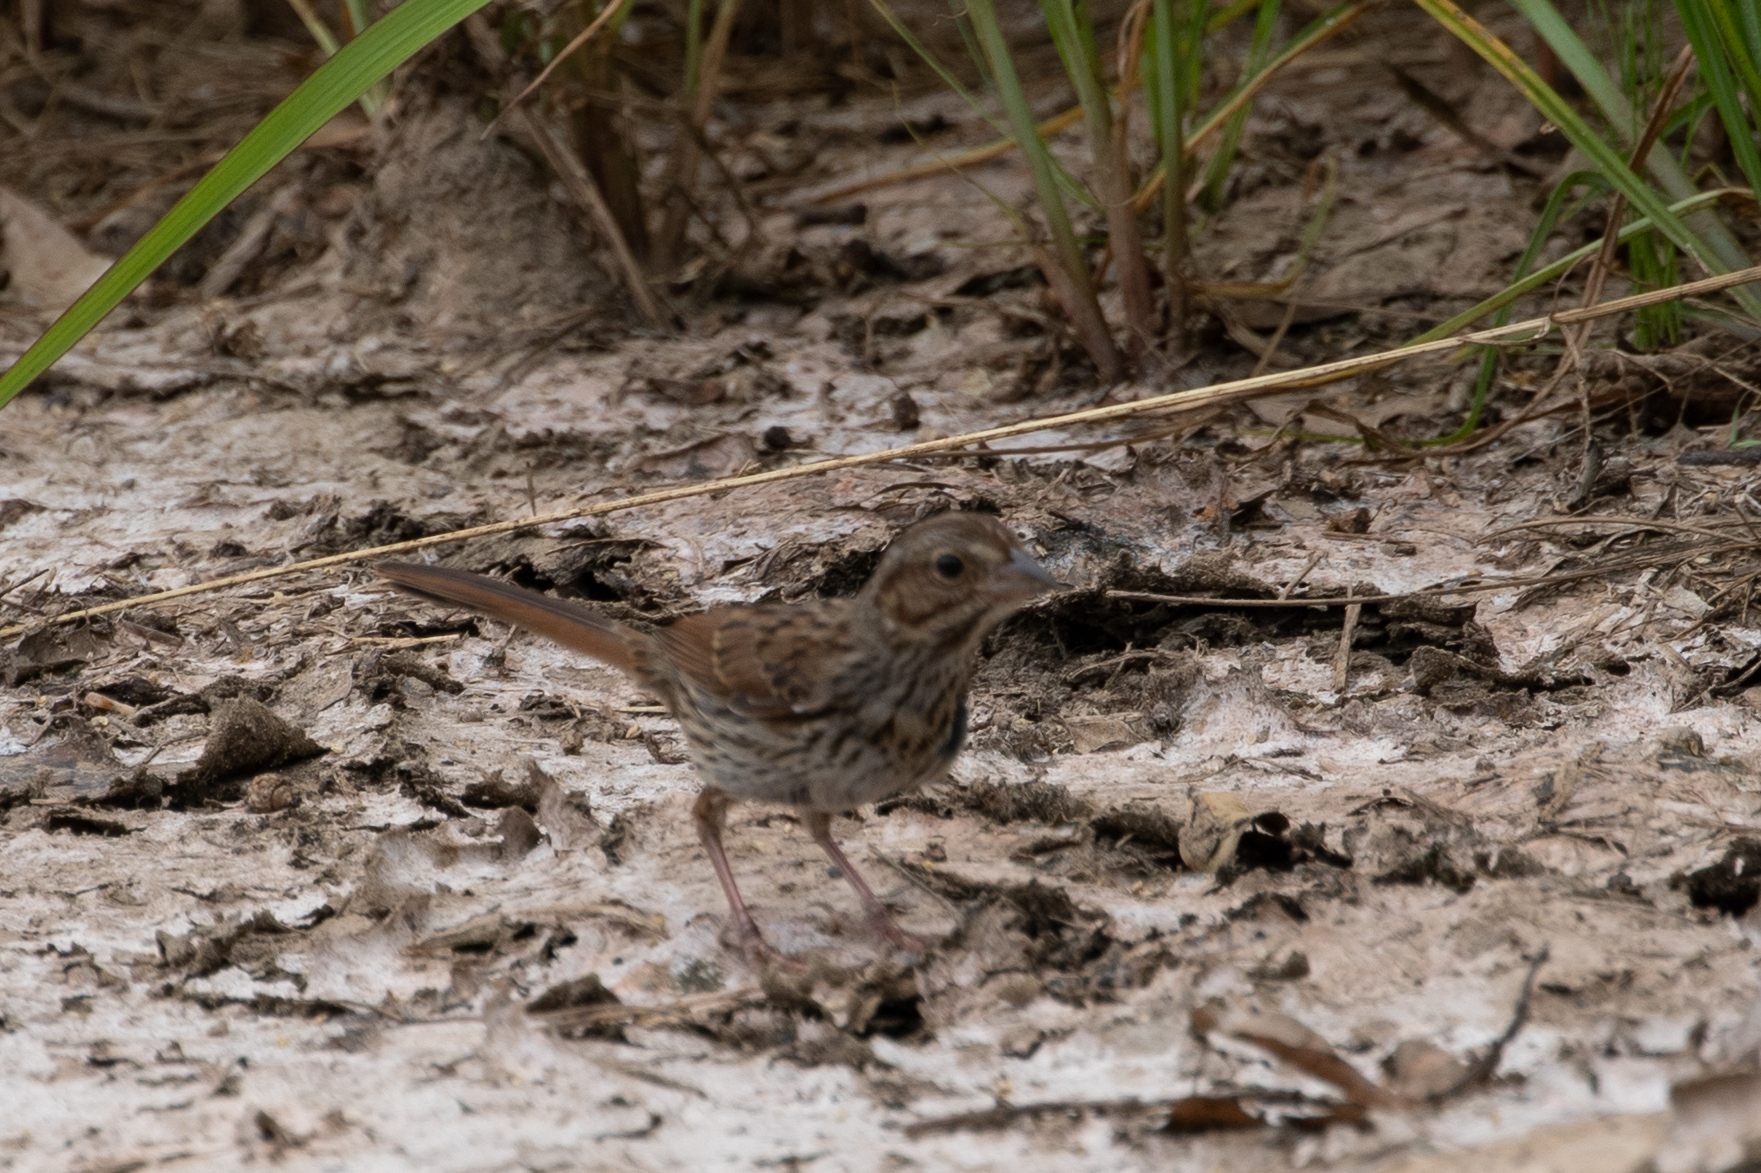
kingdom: Animalia
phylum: Chordata
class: Aves
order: Passeriformes
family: Passerellidae
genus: Melospiza
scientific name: Melospiza melodia
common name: Song sparrow
